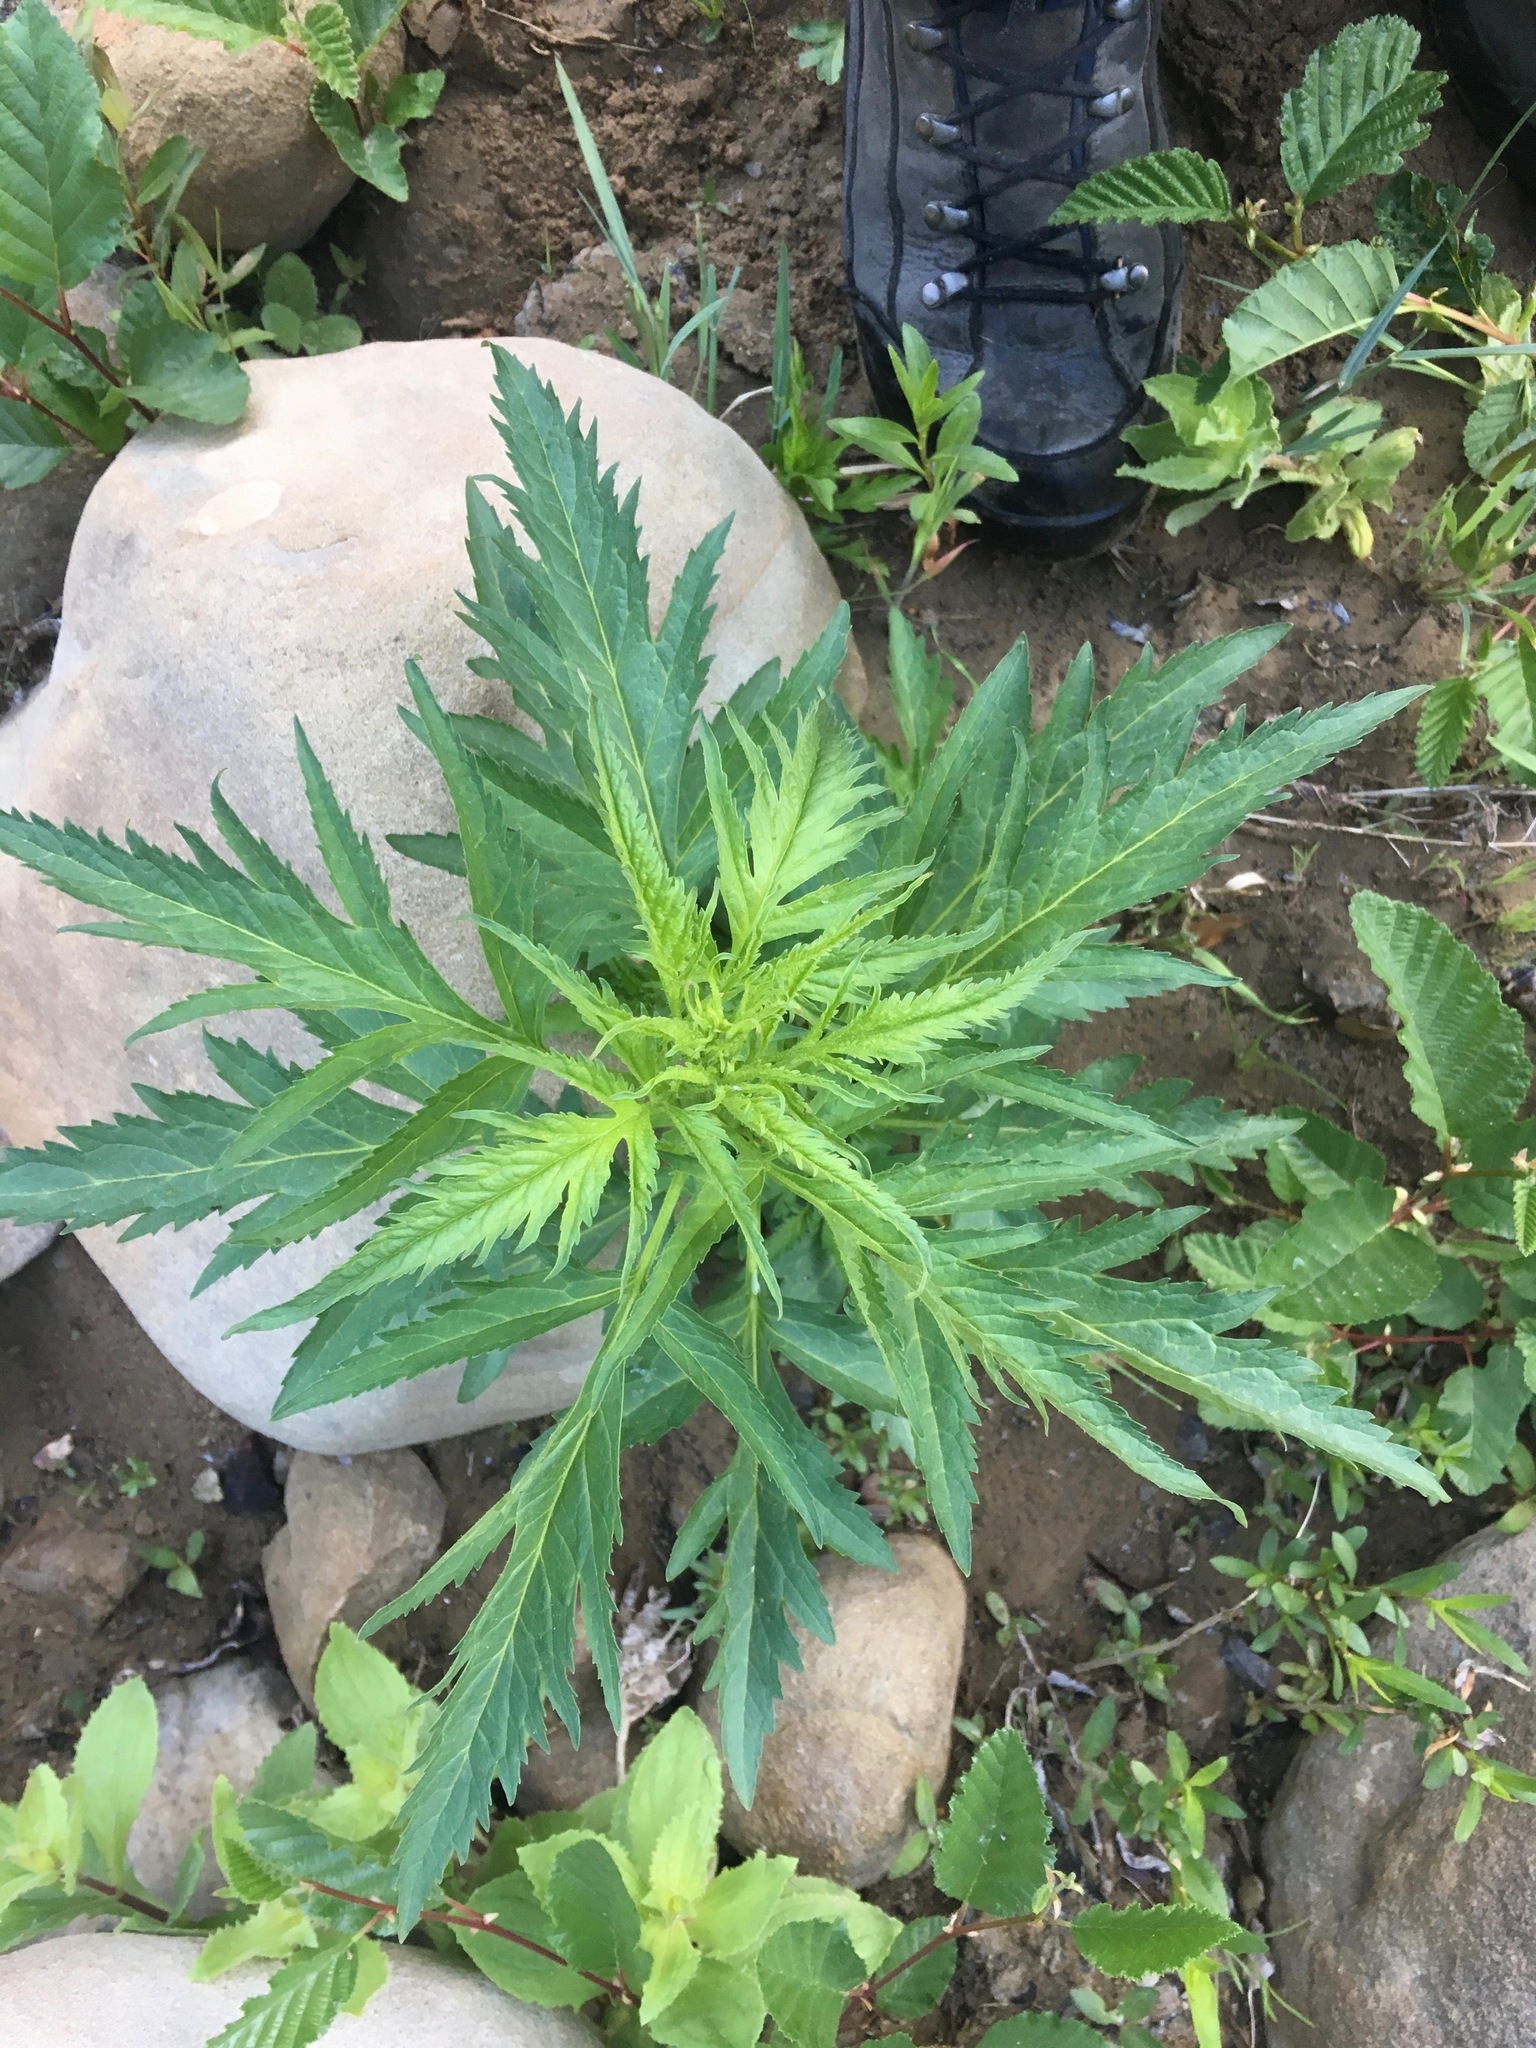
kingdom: Plantae
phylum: Tracheophyta
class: Magnoliopsida
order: Cucurbitales
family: Datiscaceae
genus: Datisca
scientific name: Datisca glomerata
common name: Durango-root
